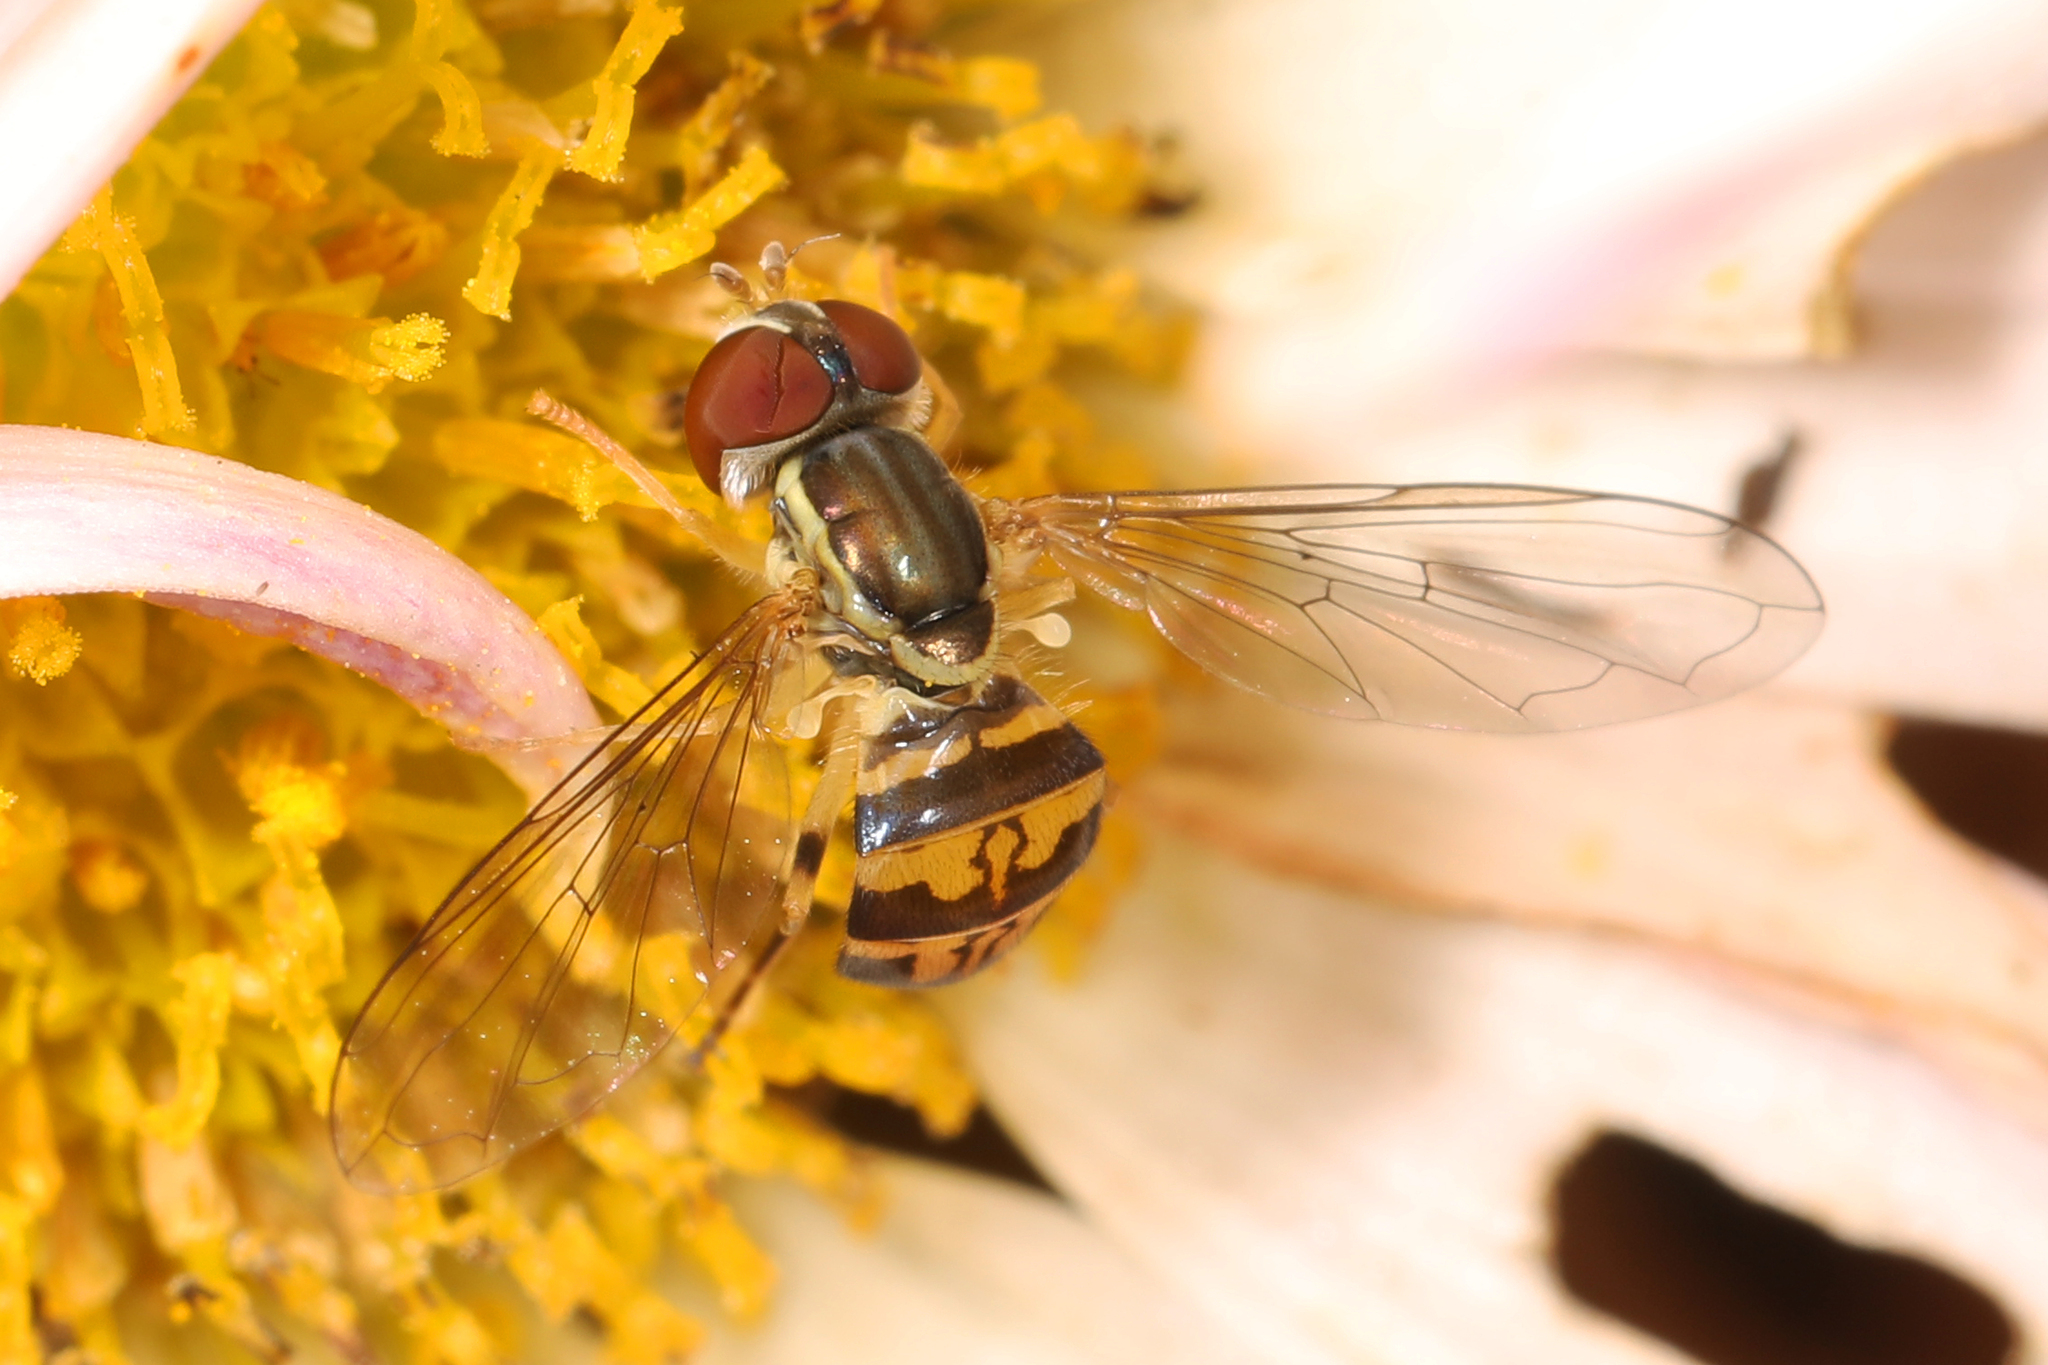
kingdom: Animalia
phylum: Arthropoda
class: Insecta
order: Diptera
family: Syrphidae
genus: Toxomerus
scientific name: Toxomerus geminatus
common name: Eastern calligrapher
